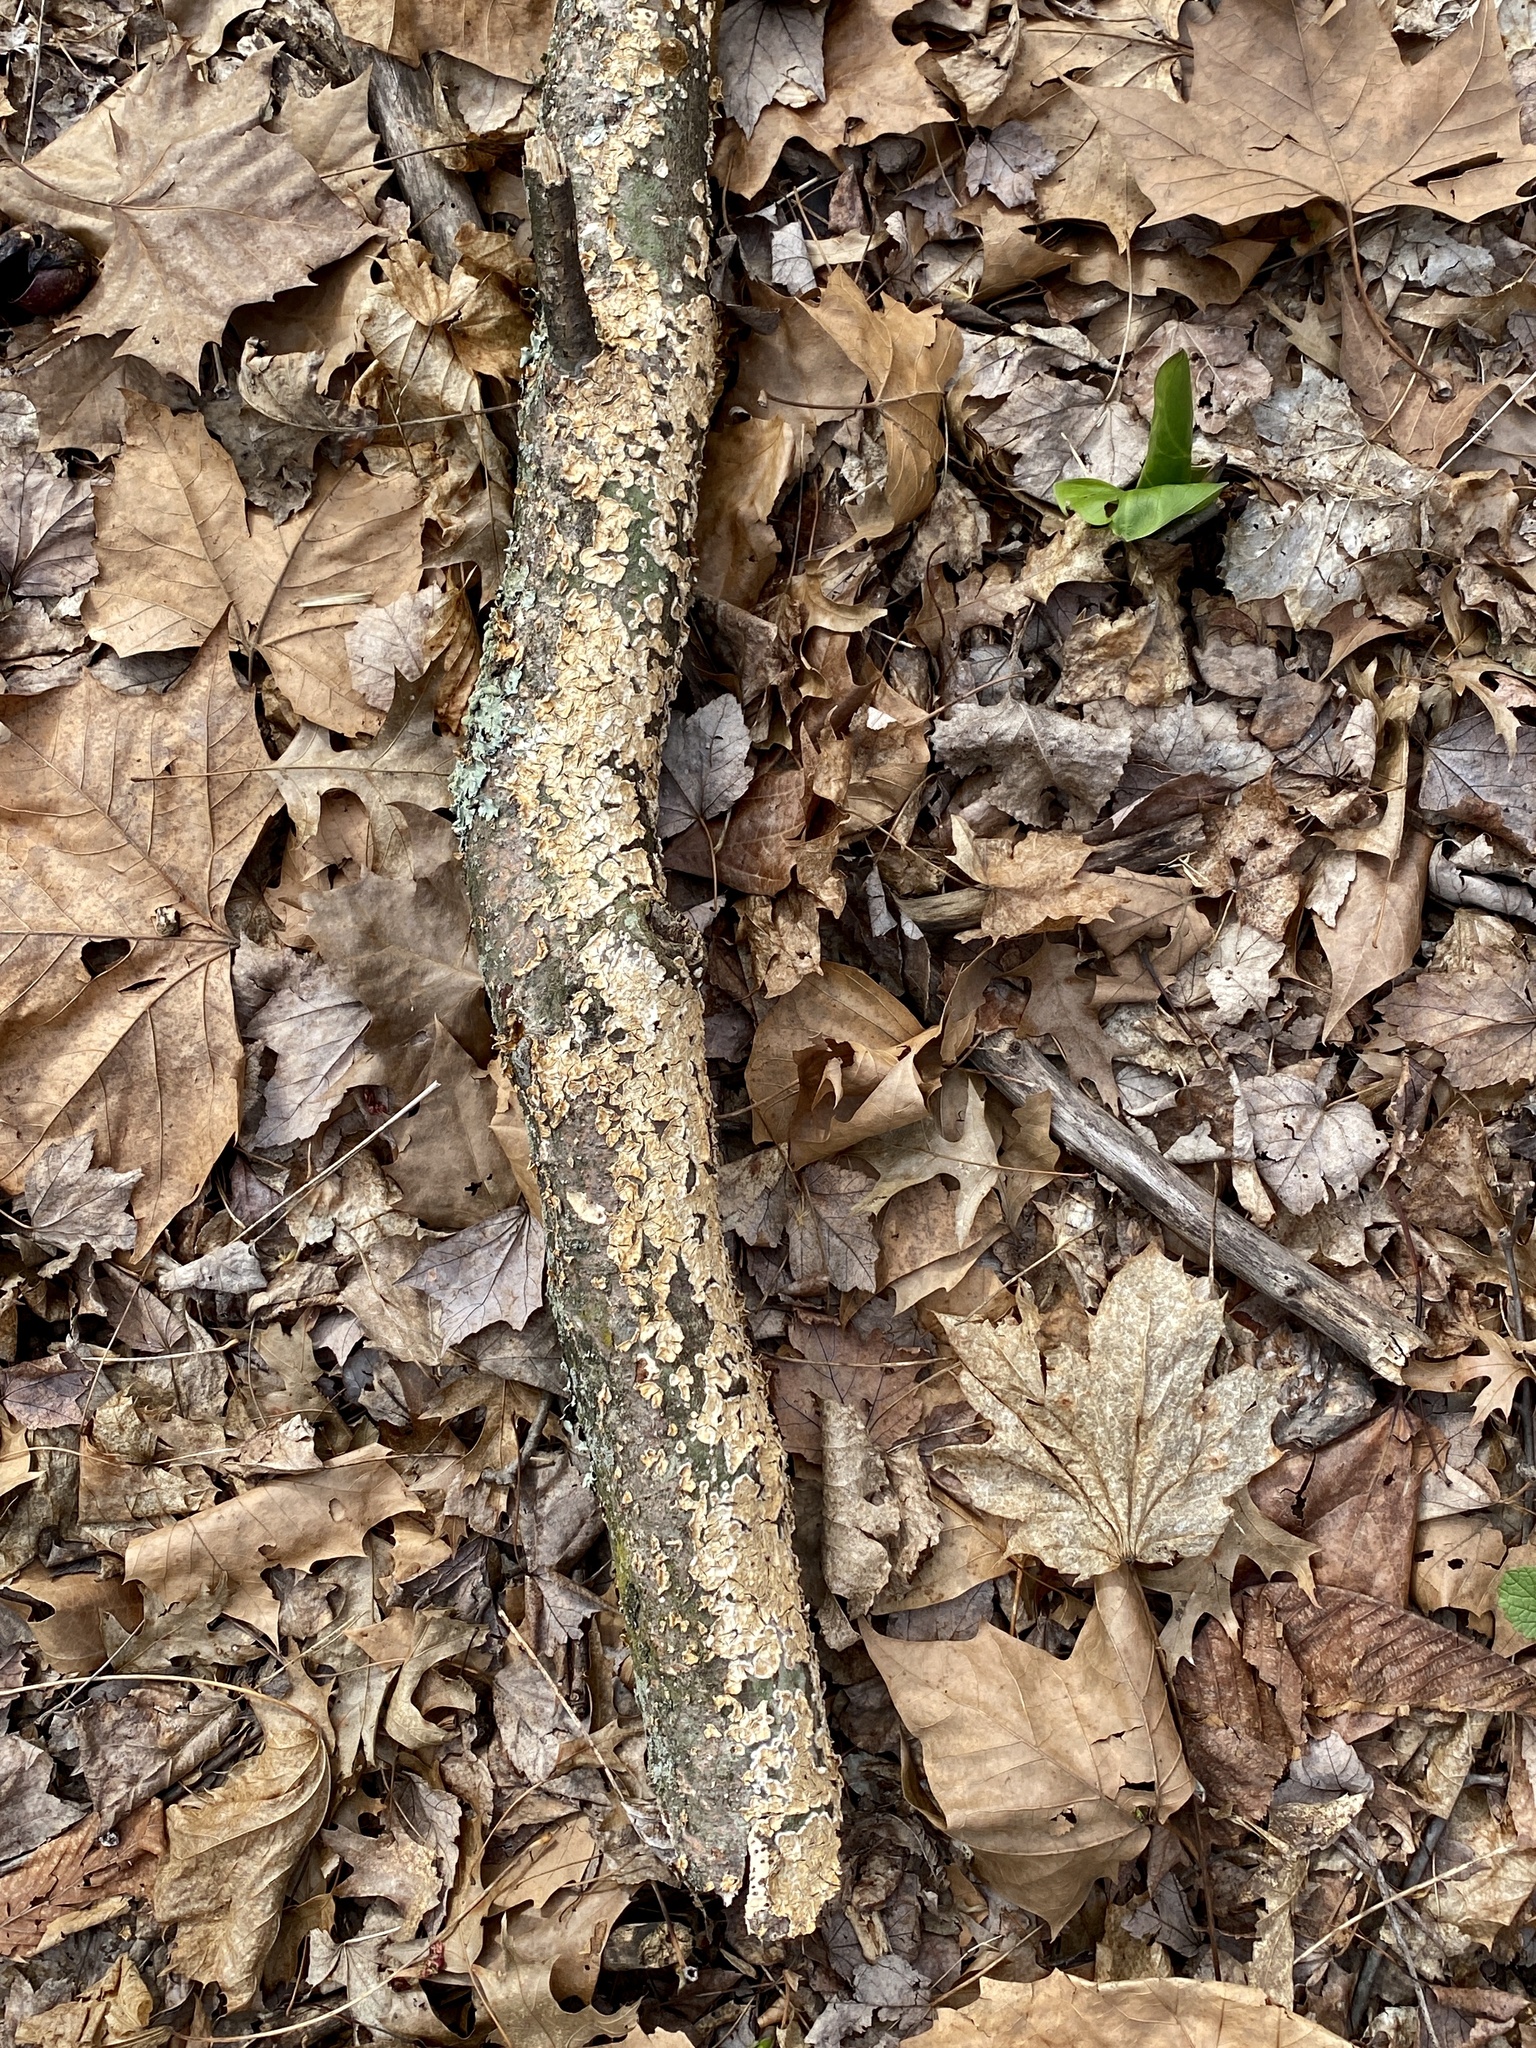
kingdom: Fungi
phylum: Basidiomycota
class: Agaricomycetes
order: Russulales
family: Stereaceae
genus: Stereum
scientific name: Stereum complicatum
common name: Crowded parchment
